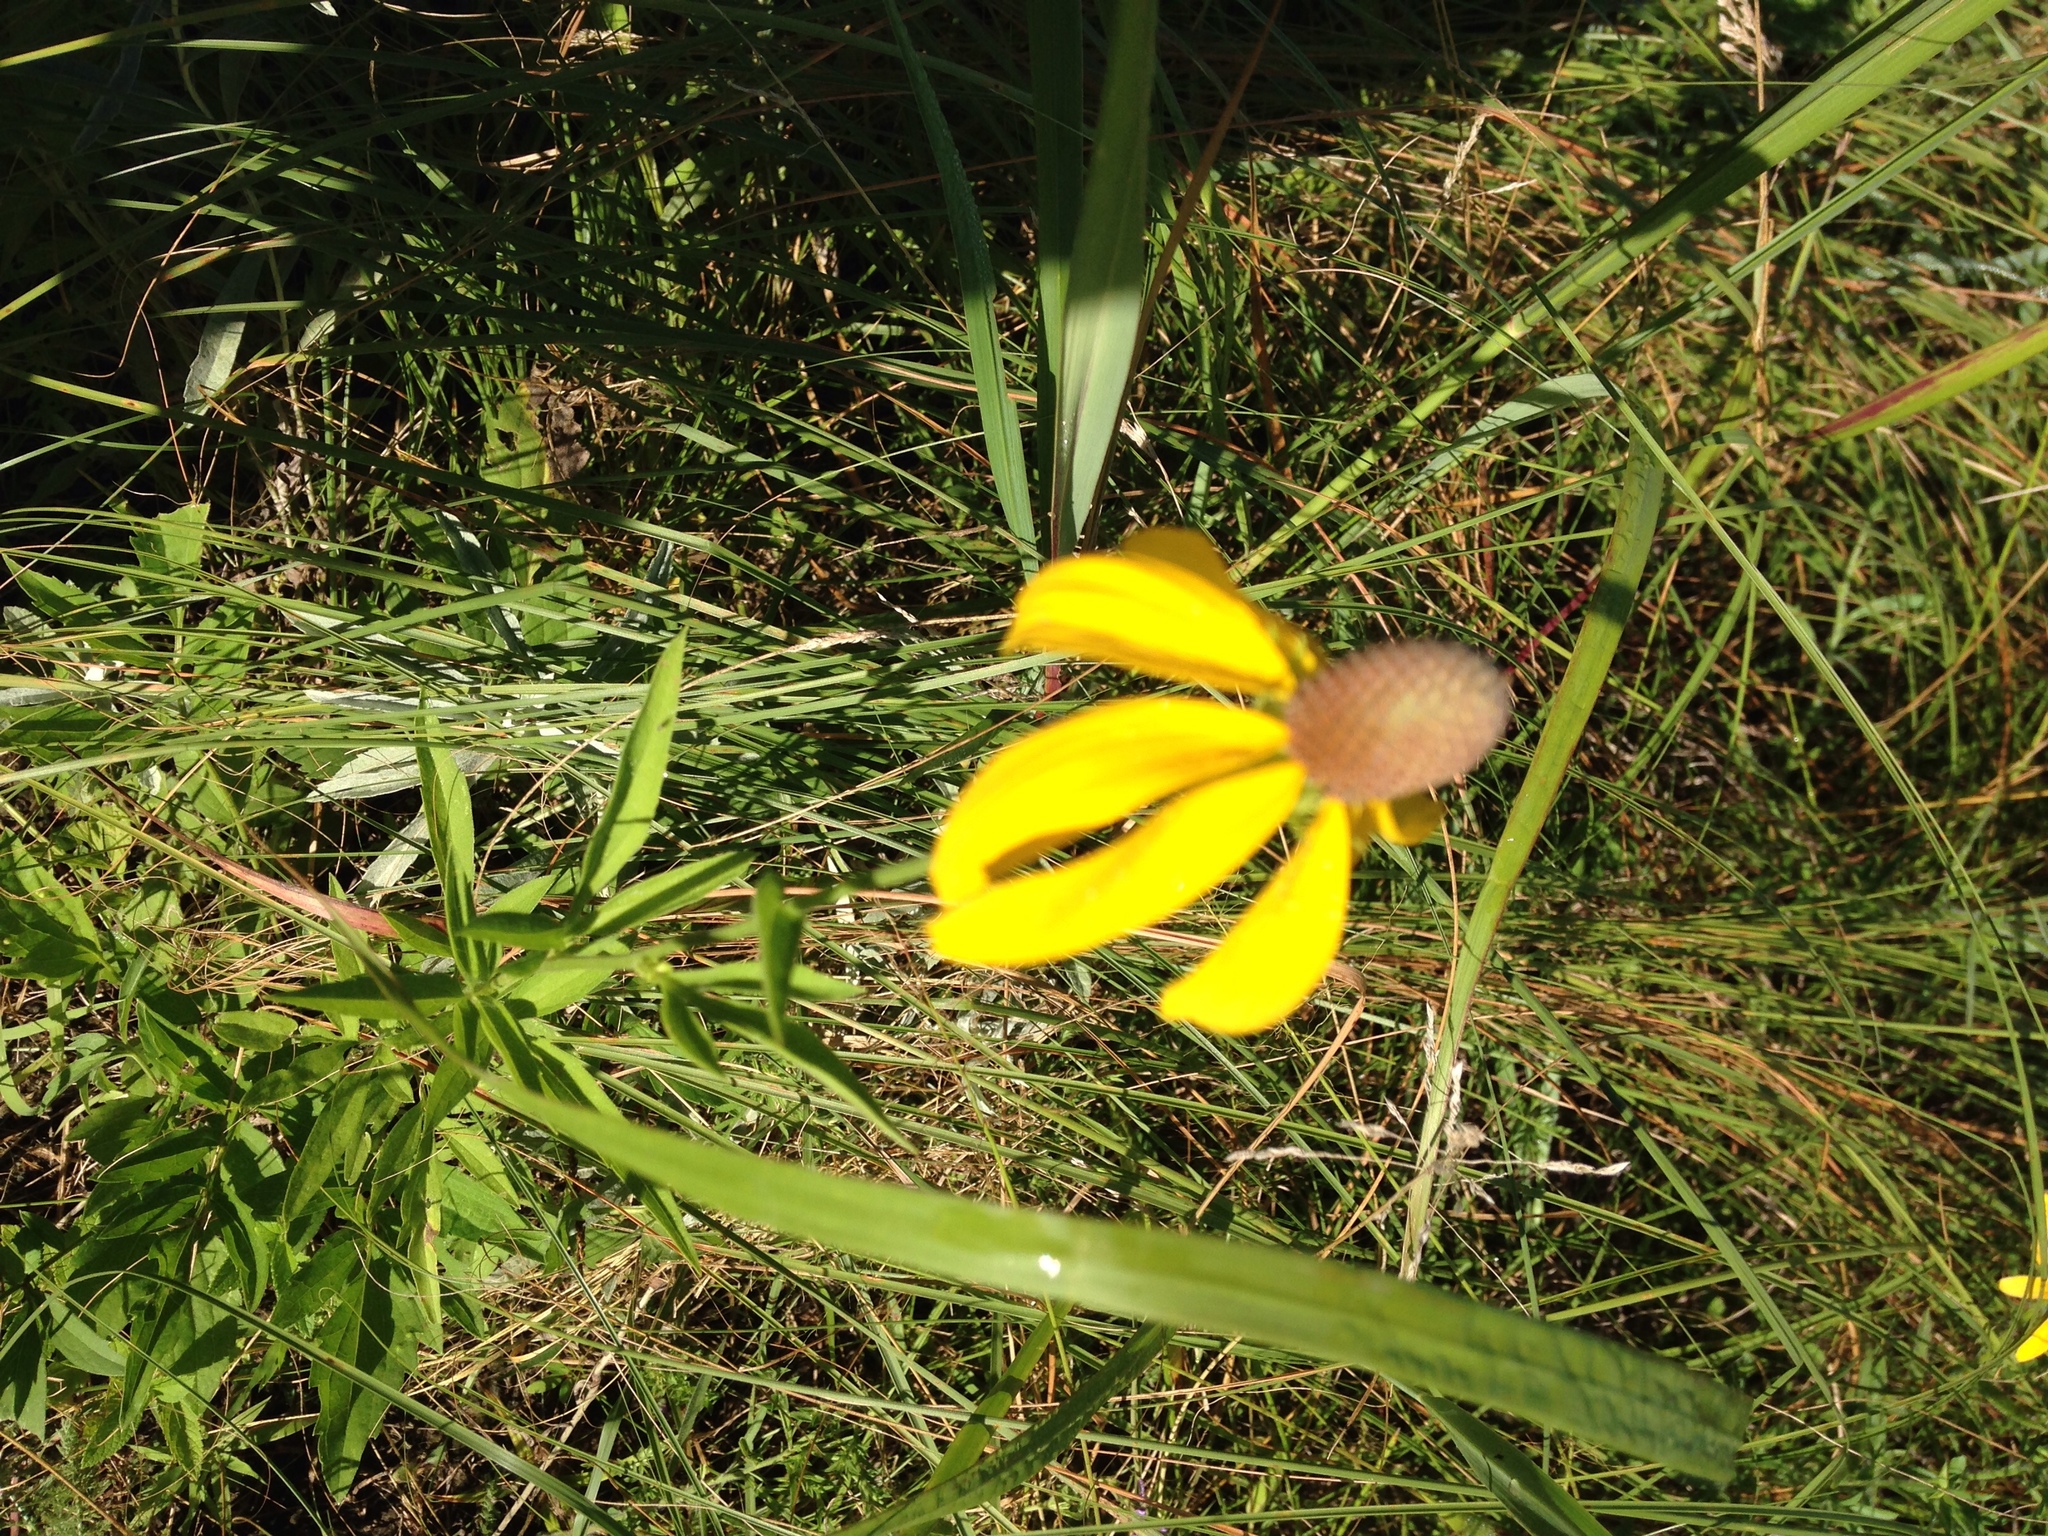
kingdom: Plantae
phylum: Tracheophyta
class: Magnoliopsida
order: Asterales
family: Asteraceae
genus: Ratibida
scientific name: Ratibida pinnata
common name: Drooping prairie-coneflower
